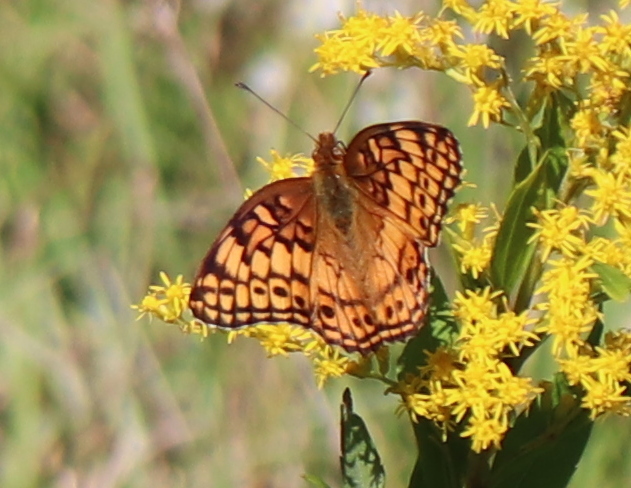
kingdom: Animalia
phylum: Arthropoda
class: Insecta
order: Lepidoptera
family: Nymphalidae
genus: Euptoieta
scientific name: Euptoieta claudia
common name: Variegated fritillary
